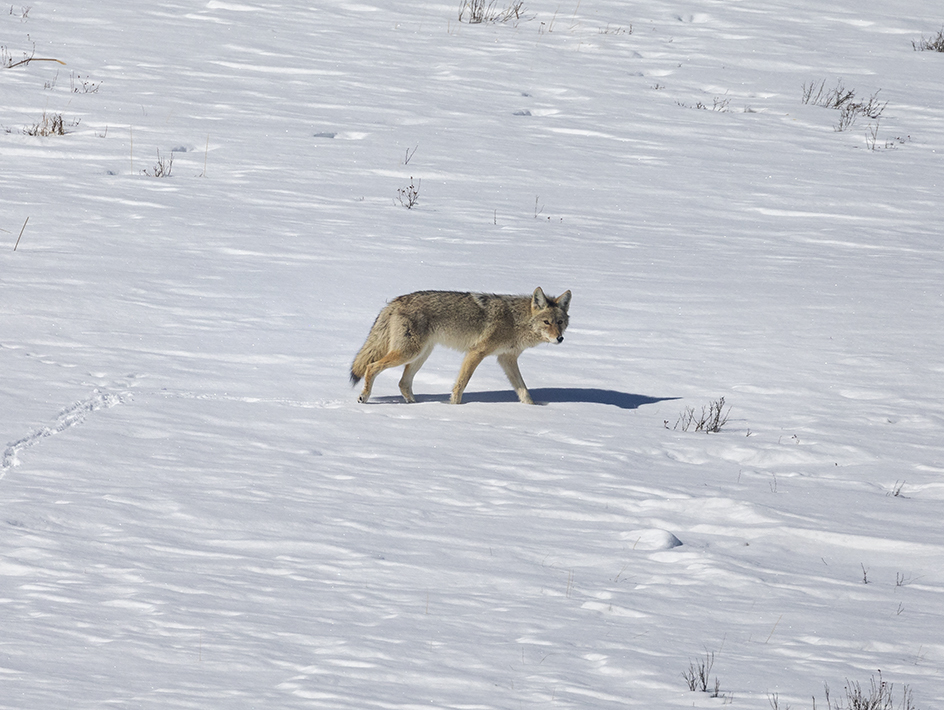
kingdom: Animalia
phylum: Chordata
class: Mammalia
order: Carnivora
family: Canidae
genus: Canis
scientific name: Canis latrans
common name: Coyote
